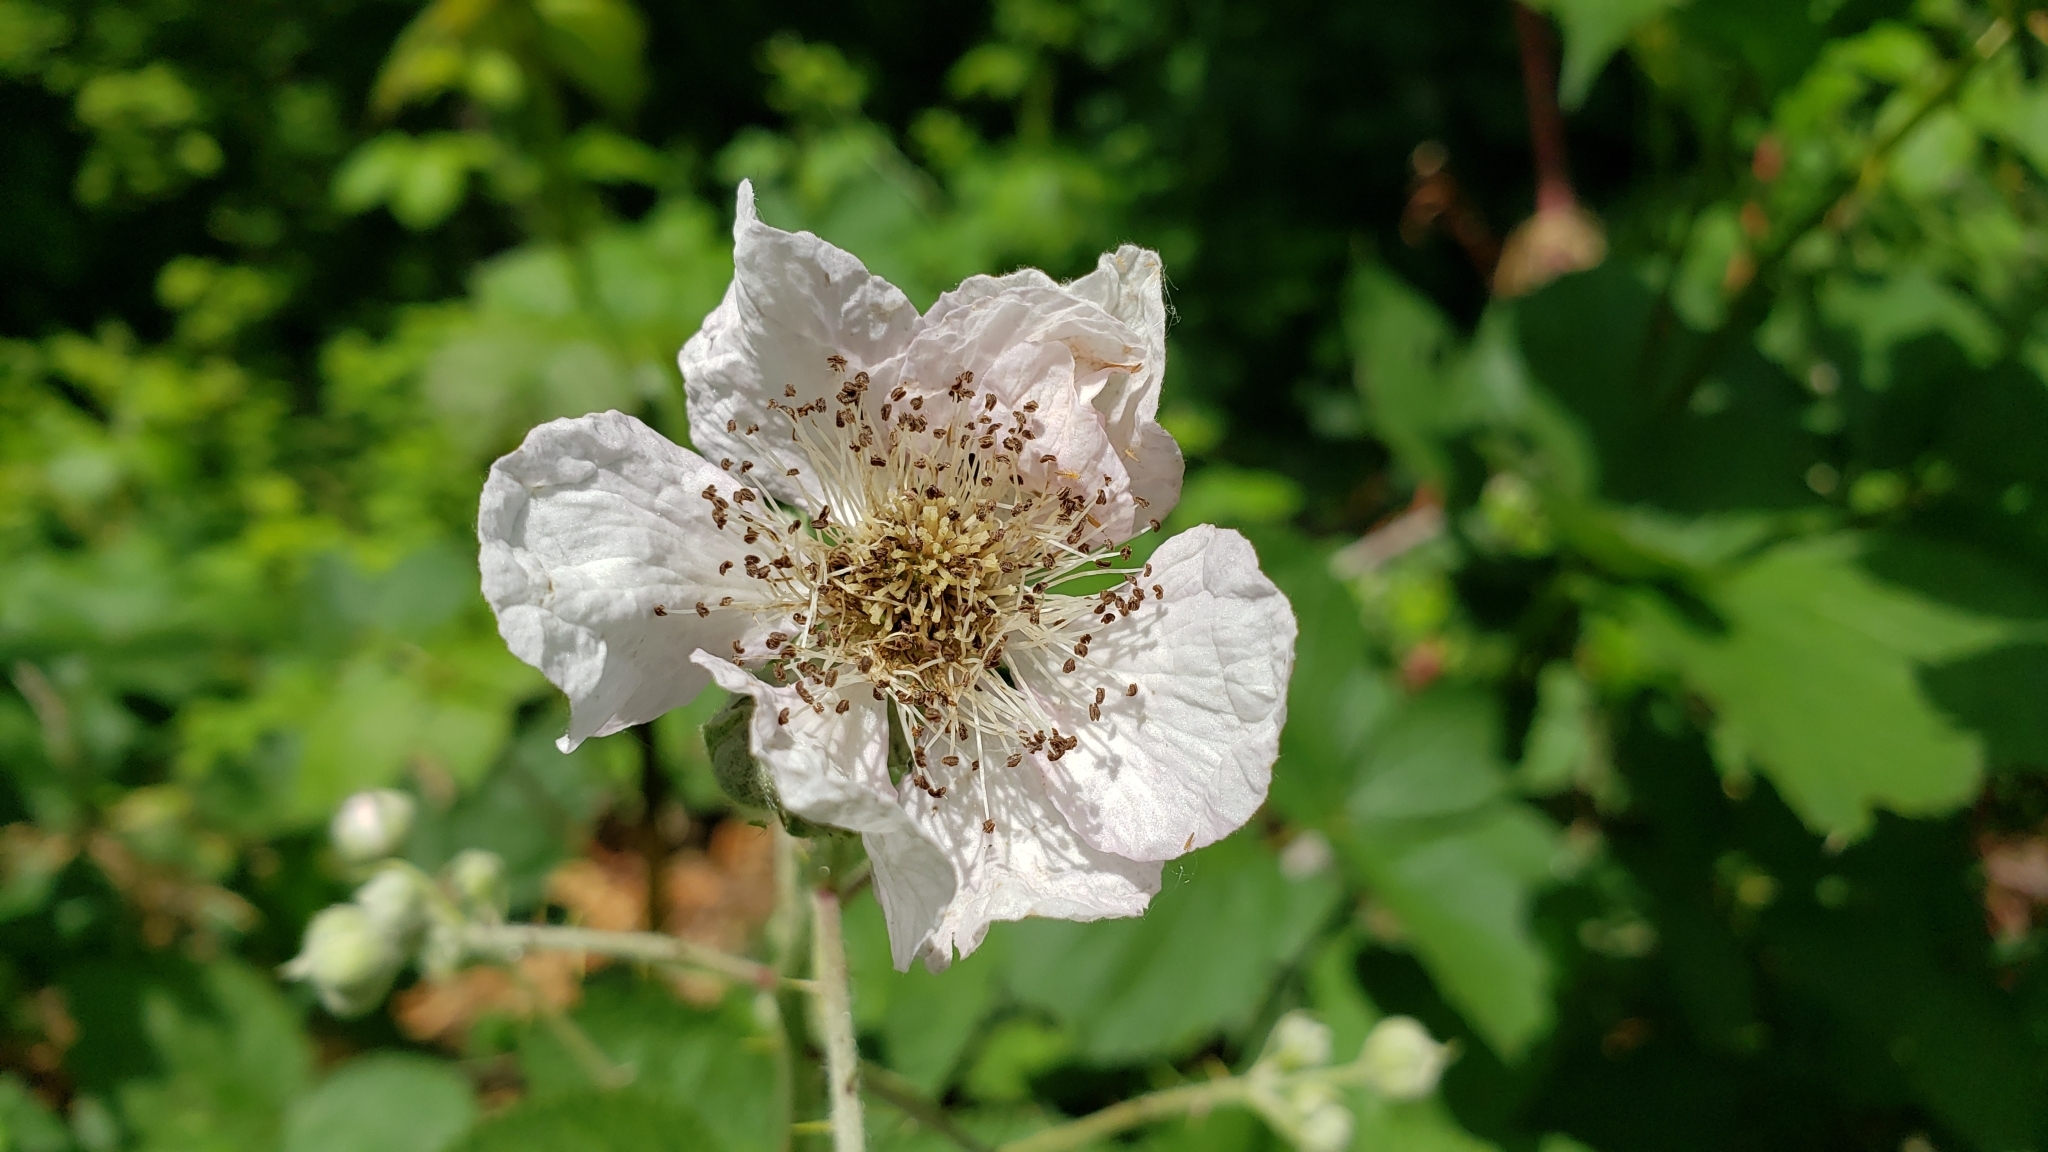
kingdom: Plantae
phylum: Tracheophyta
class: Magnoliopsida
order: Rosales
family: Rosaceae
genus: Rubus
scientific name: Rubus bifrons
